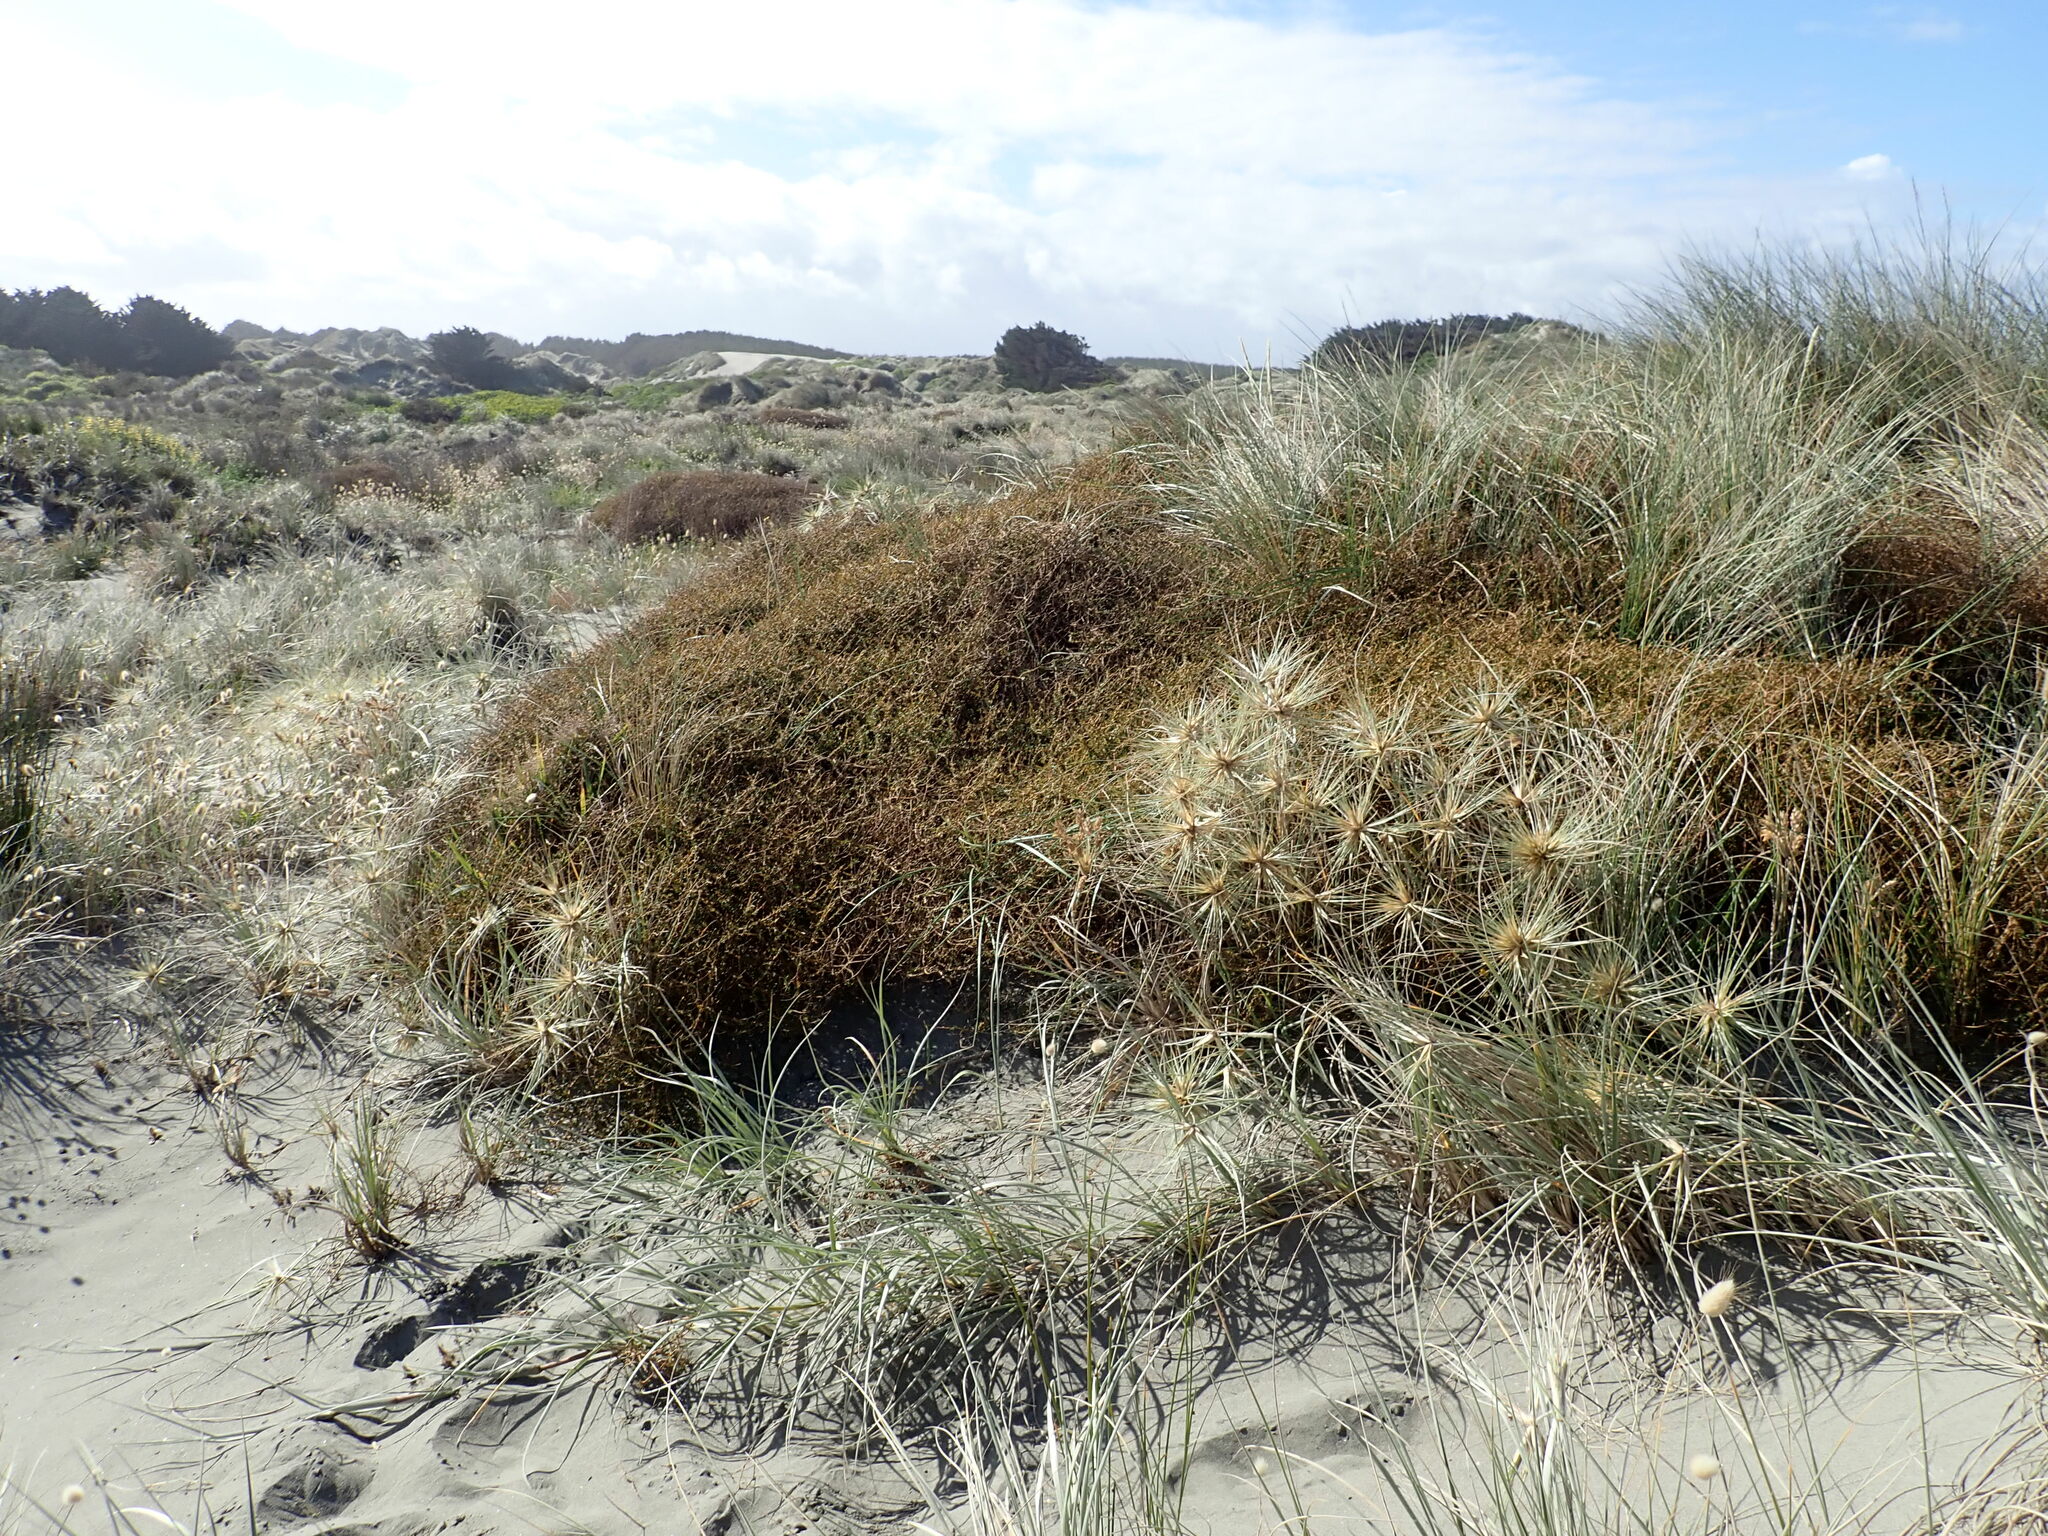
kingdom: Plantae
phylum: Tracheophyta
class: Magnoliopsida
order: Gentianales
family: Rubiaceae
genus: Coprosma
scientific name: Coprosma acerosa
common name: Sand coprosma
